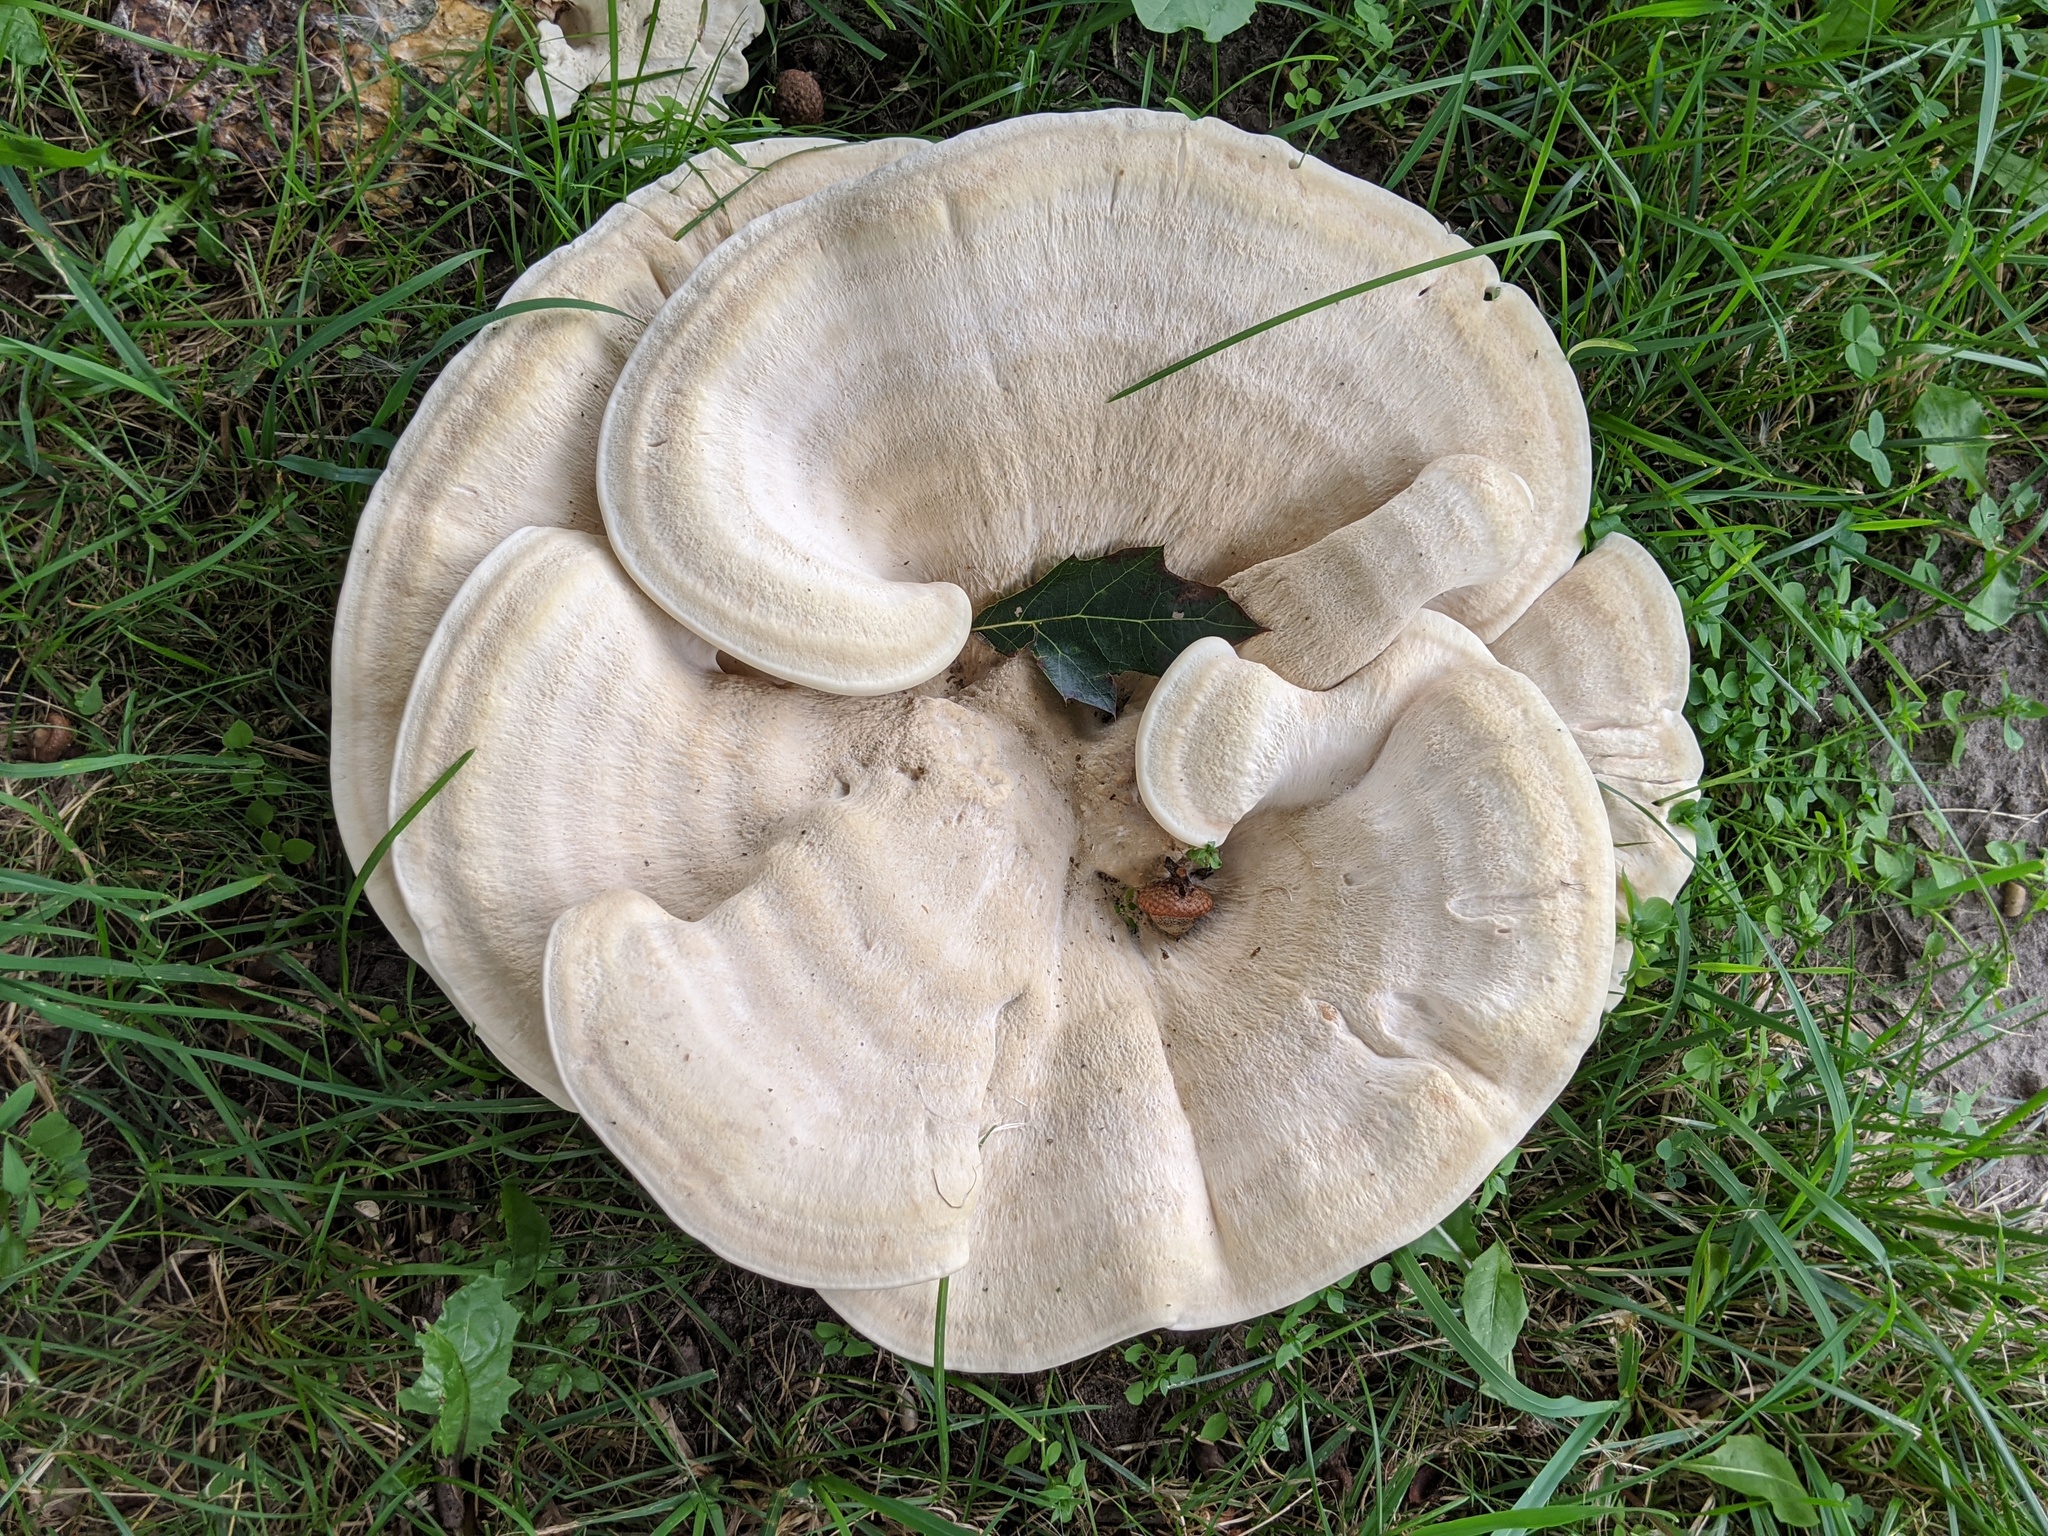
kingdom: Fungi
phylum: Basidiomycota
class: Agaricomycetes
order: Russulales
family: Bondarzewiaceae
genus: Bondarzewia
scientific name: Bondarzewia berkeleyi
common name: Berkeley's polypore
